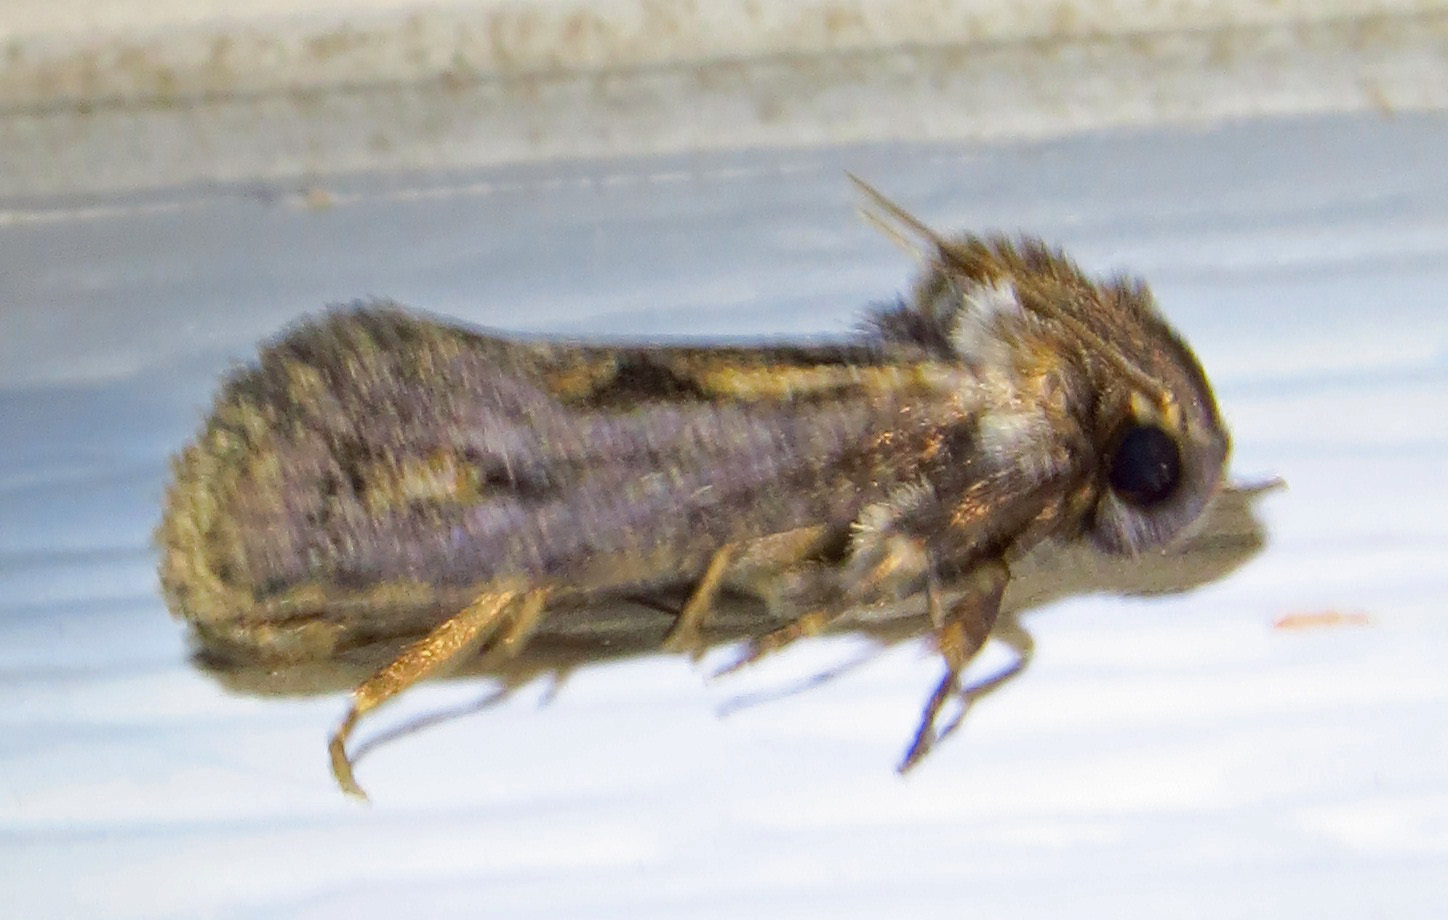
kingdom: Animalia
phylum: Arthropoda
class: Insecta
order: Lepidoptera
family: Tineidae
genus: Acrolophus
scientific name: Acrolophus popeanella
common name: Clemens' grass tubeworm moth
